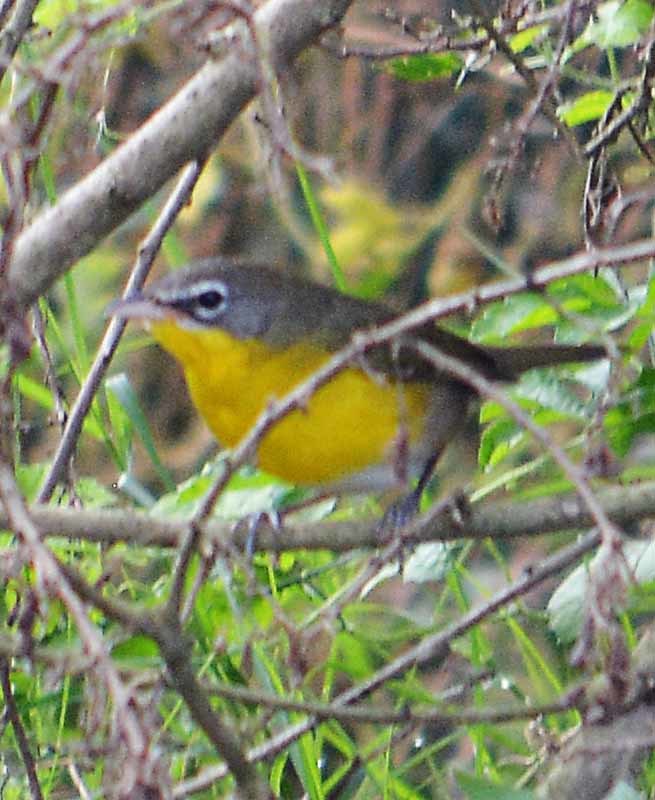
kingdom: Animalia
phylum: Chordata
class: Aves
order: Passeriformes
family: Parulidae
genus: Icteria
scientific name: Icteria virens
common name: Yellow-breasted chat
